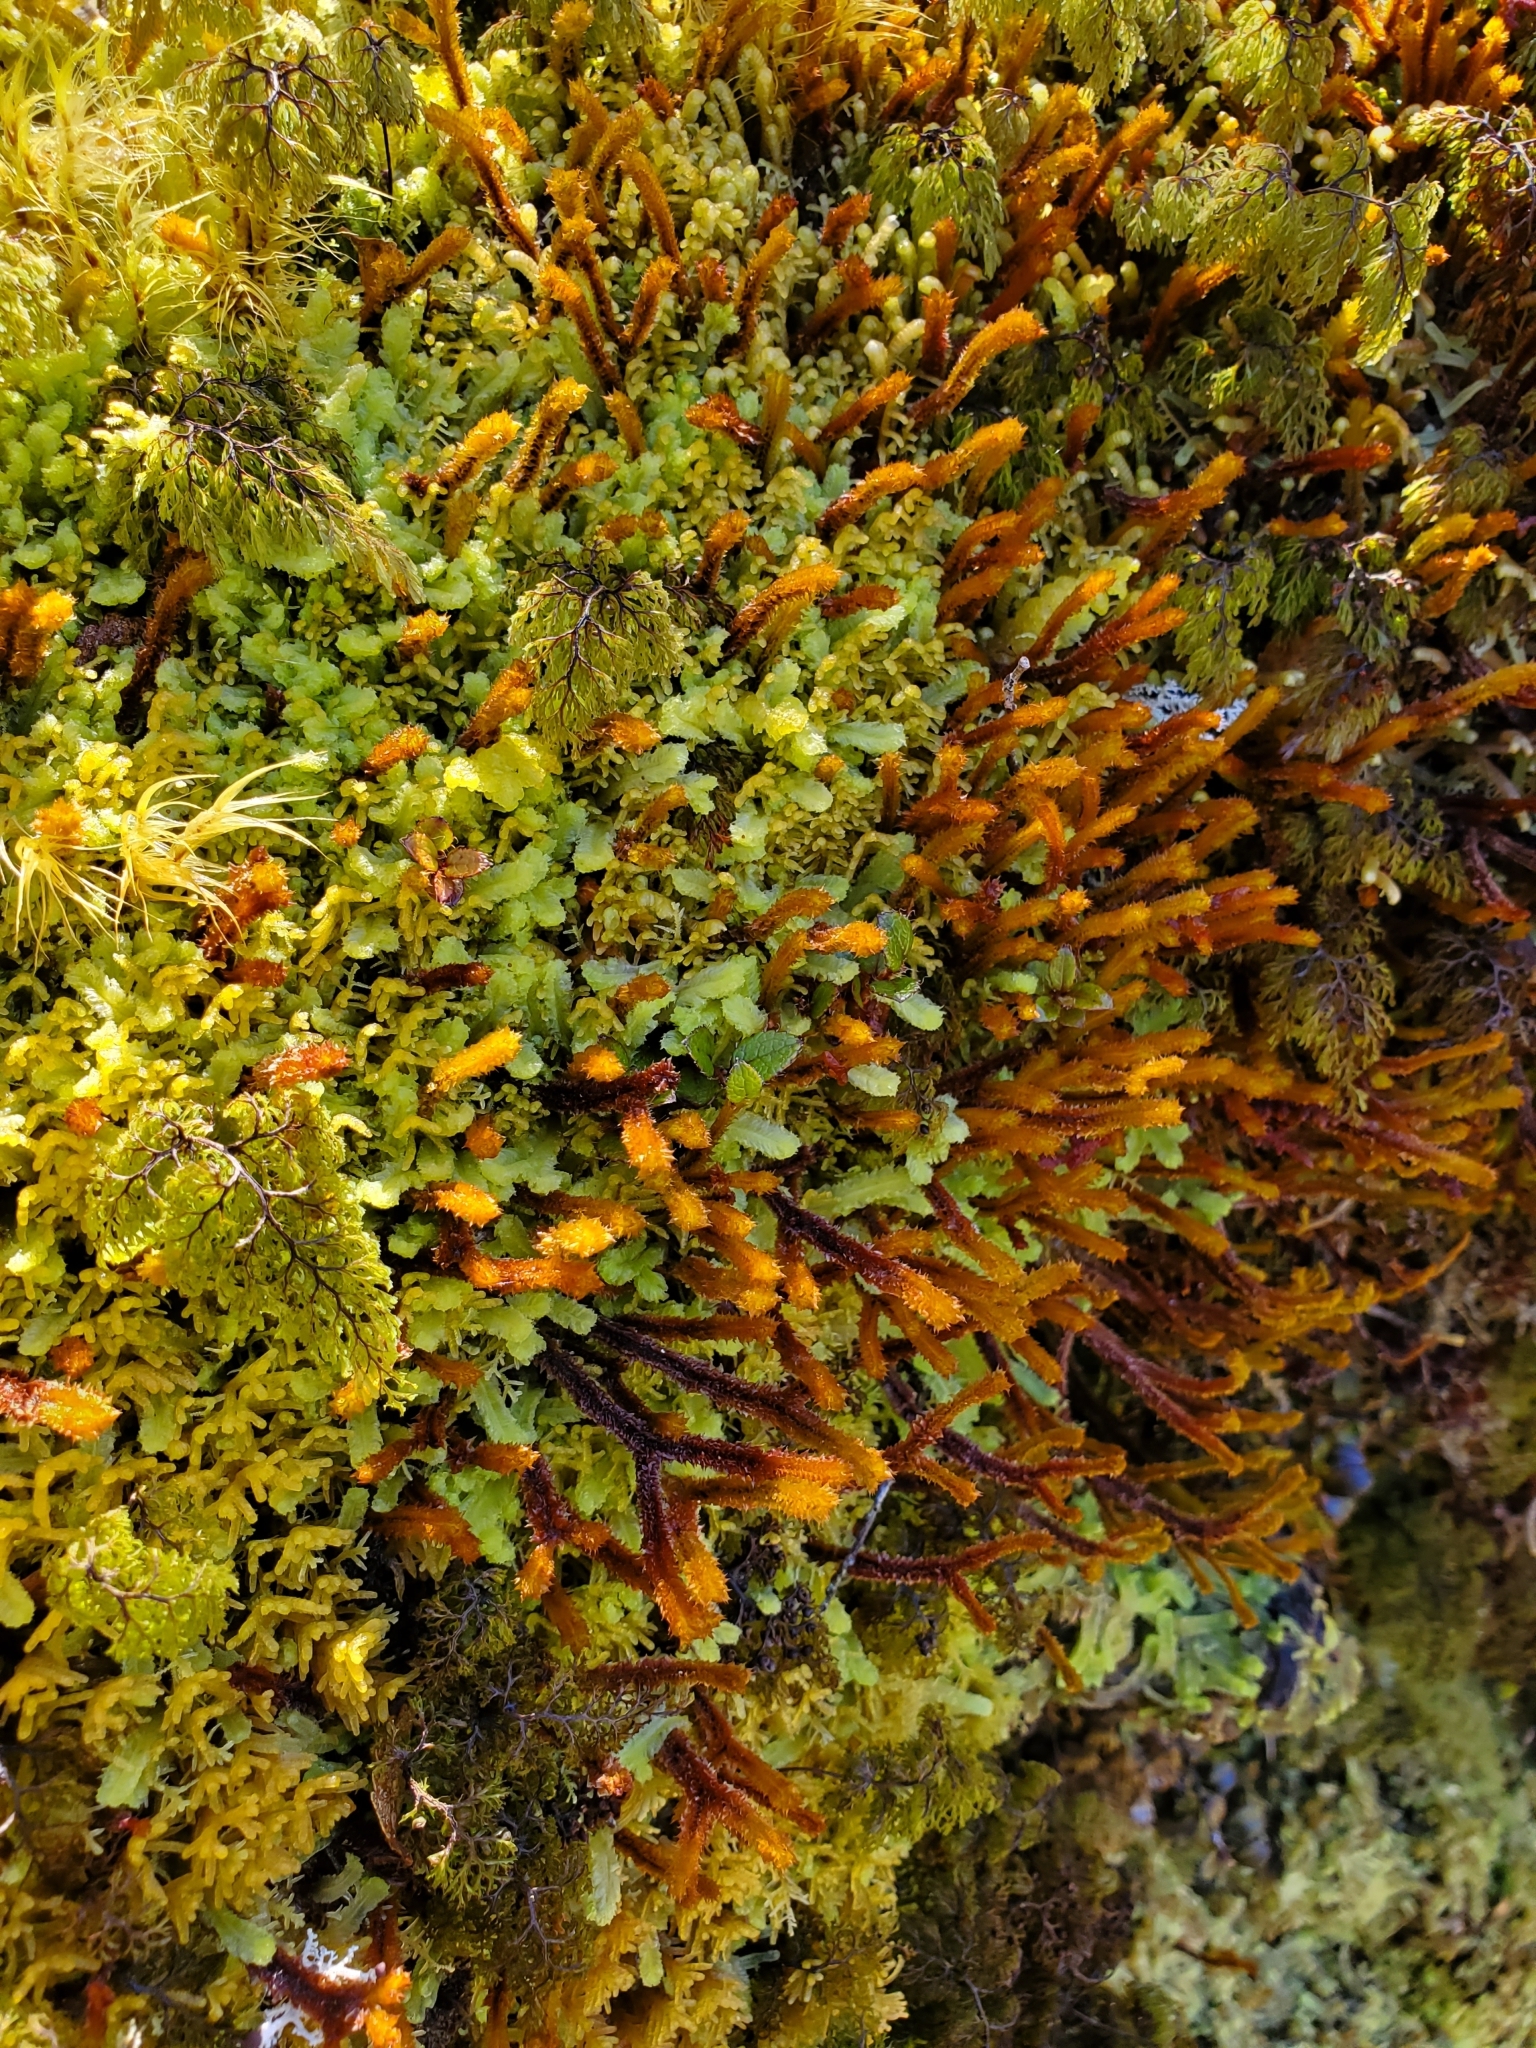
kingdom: Plantae
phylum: Marchantiophyta
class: Jungermanniopsida
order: Jungermanniales
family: Anastrophyllaceae
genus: Chandonanthus
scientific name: Chandonanthus squarrosus
